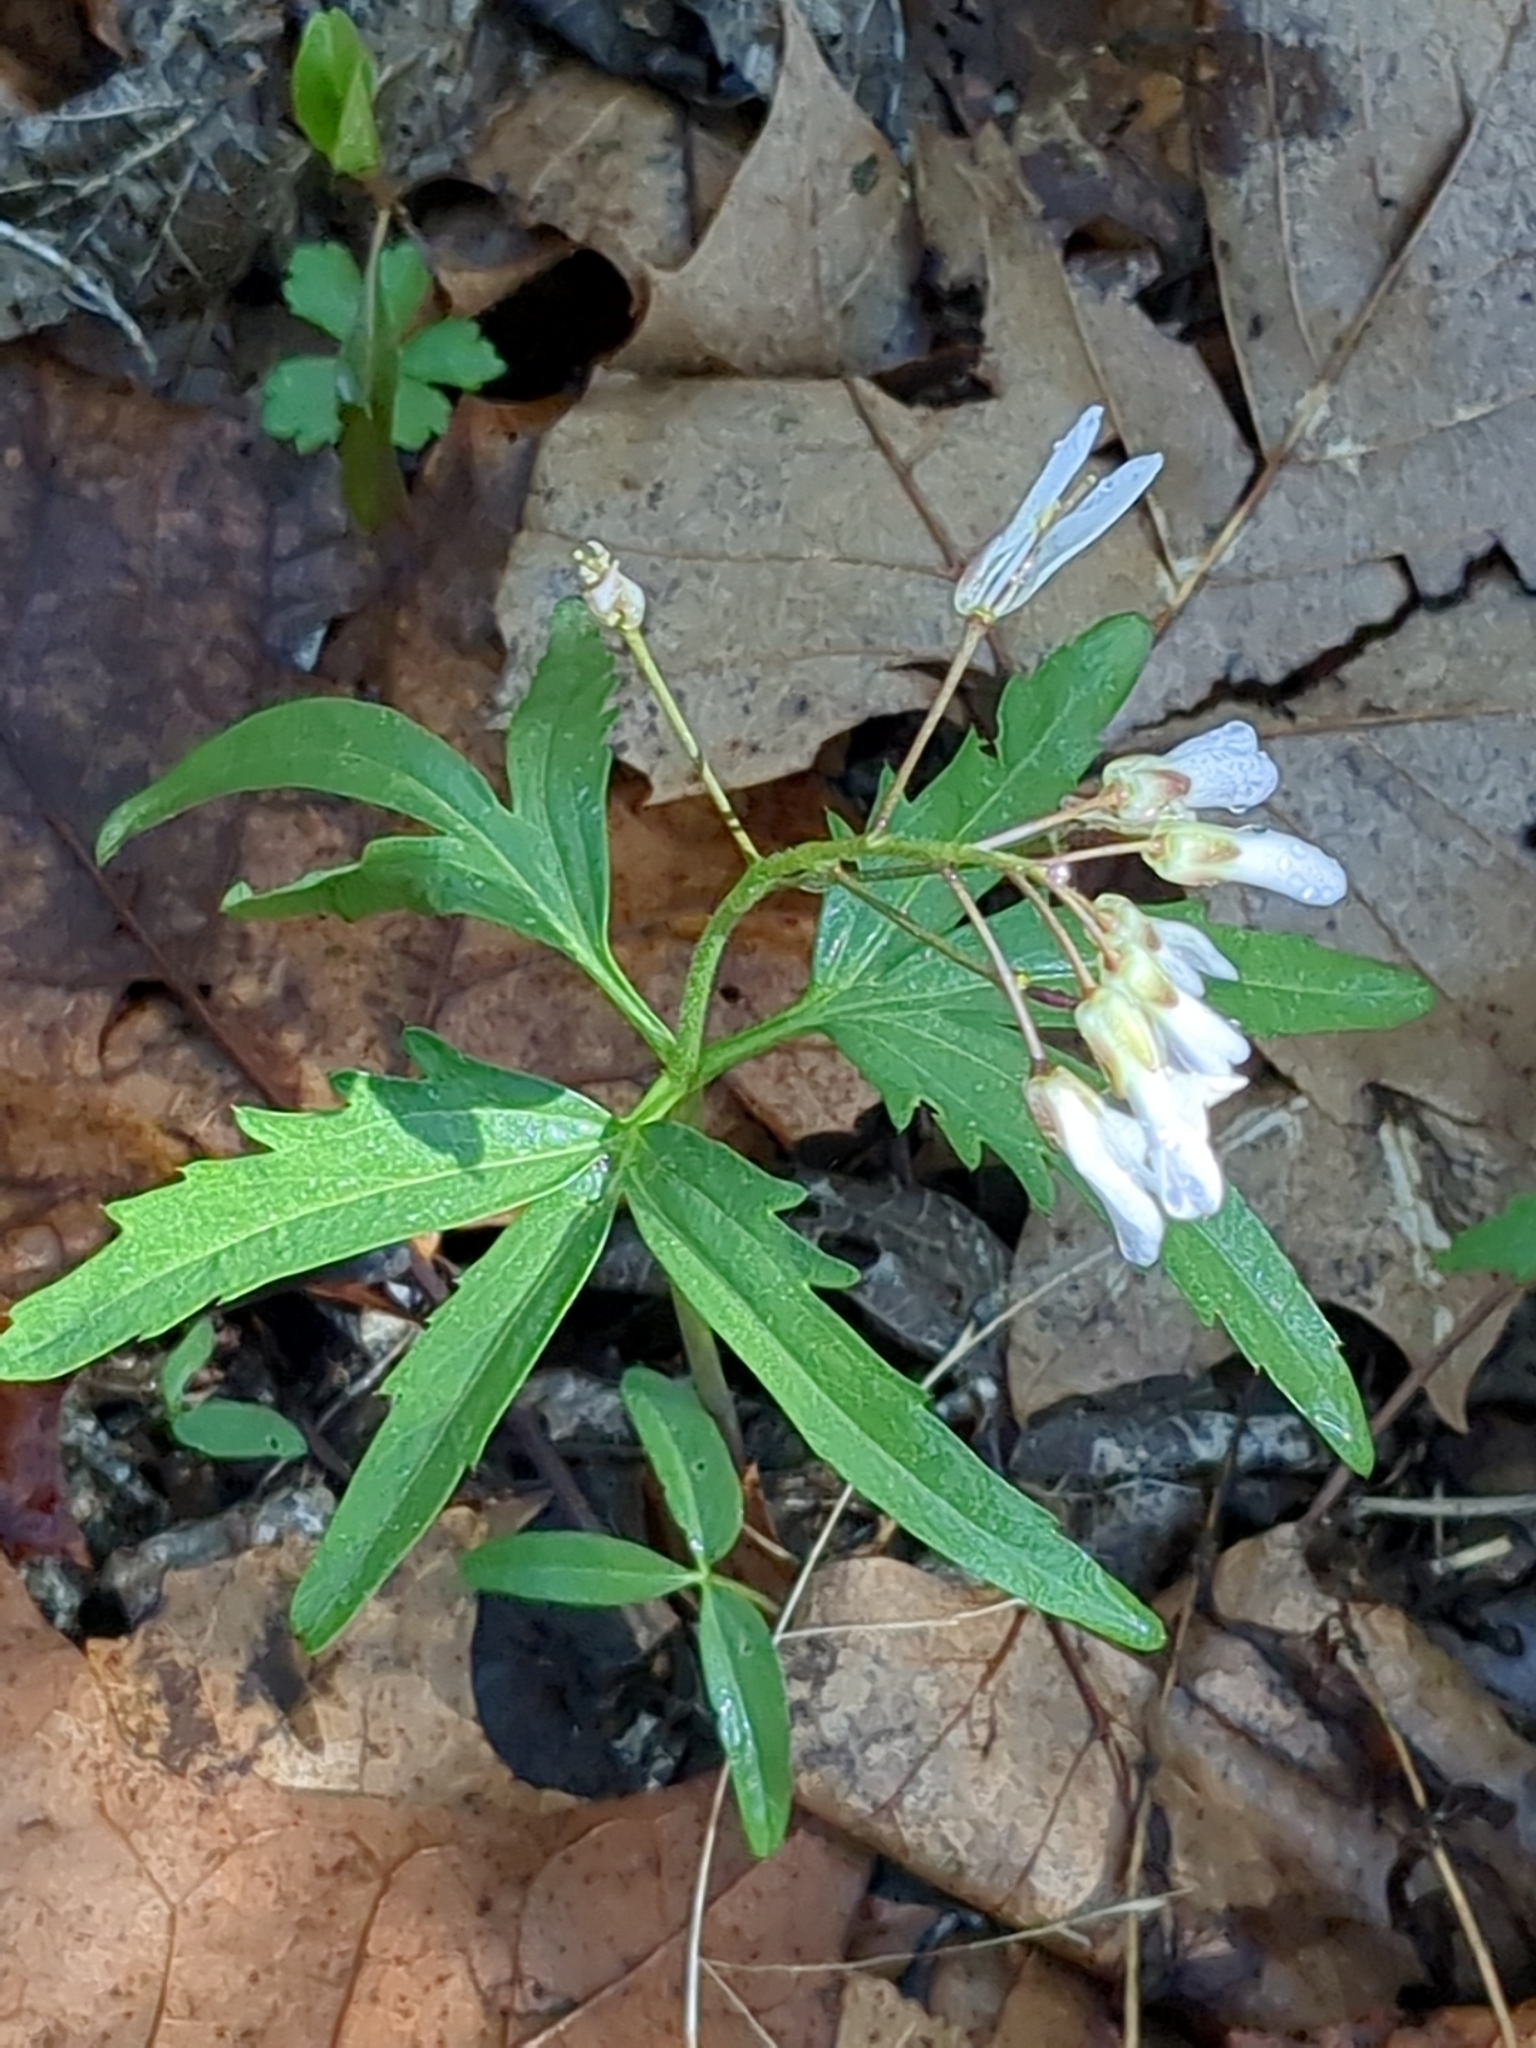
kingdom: Plantae
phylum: Tracheophyta
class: Magnoliopsida
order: Brassicales
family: Brassicaceae
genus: Cardamine
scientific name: Cardamine concatenata
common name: Cut-leaf toothcup
